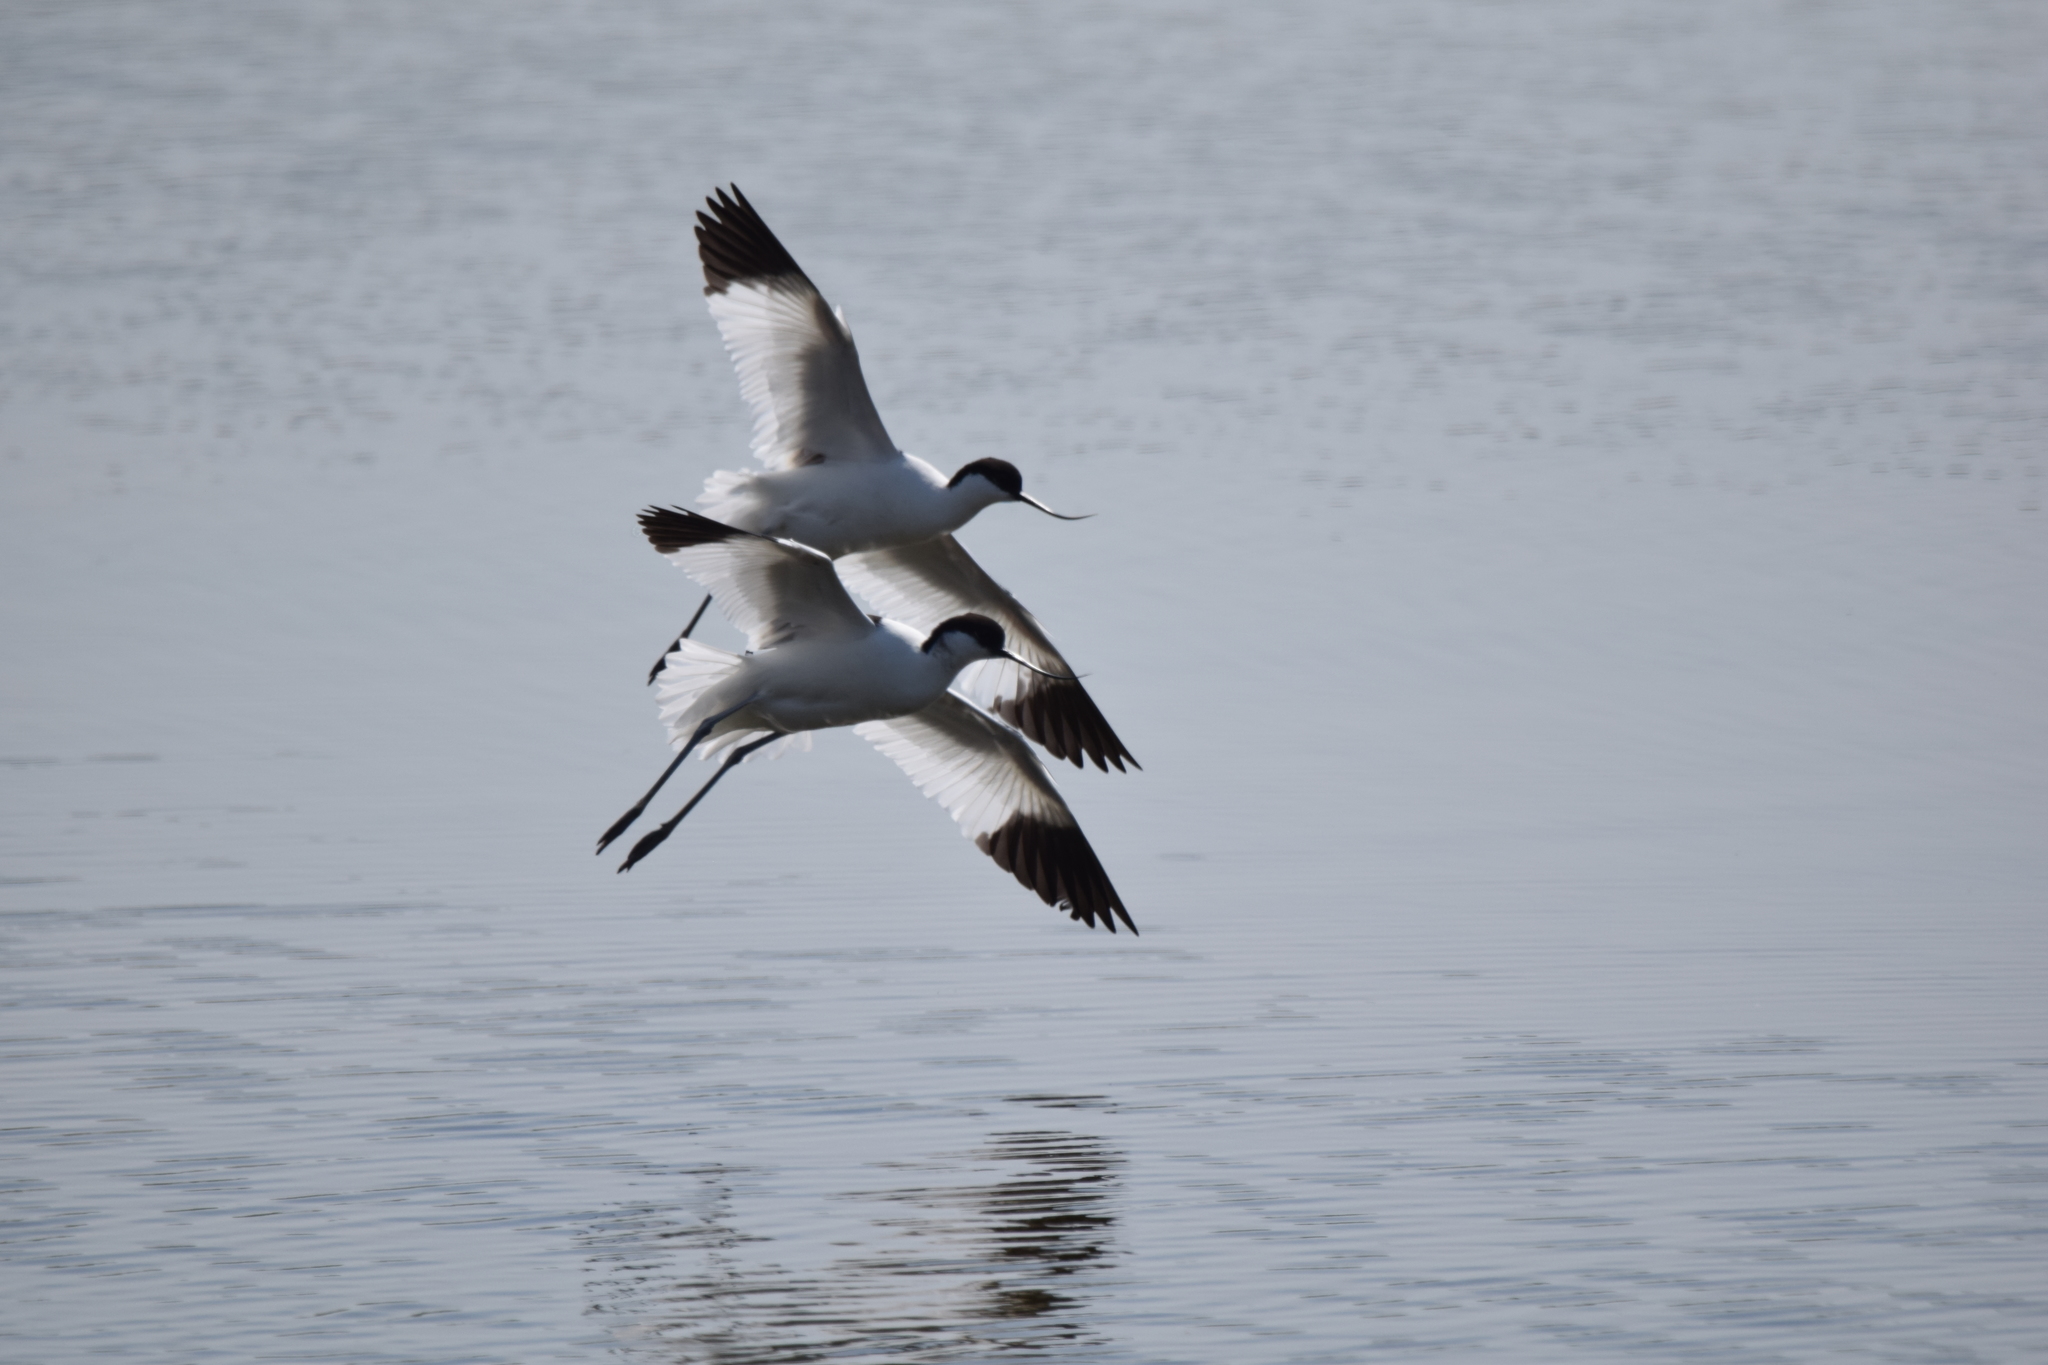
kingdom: Animalia
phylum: Chordata
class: Aves
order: Charadriiformes
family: Recurvirostridae
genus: Recurvirostra
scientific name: Recurvirostra avosetta
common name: Pied avocet
